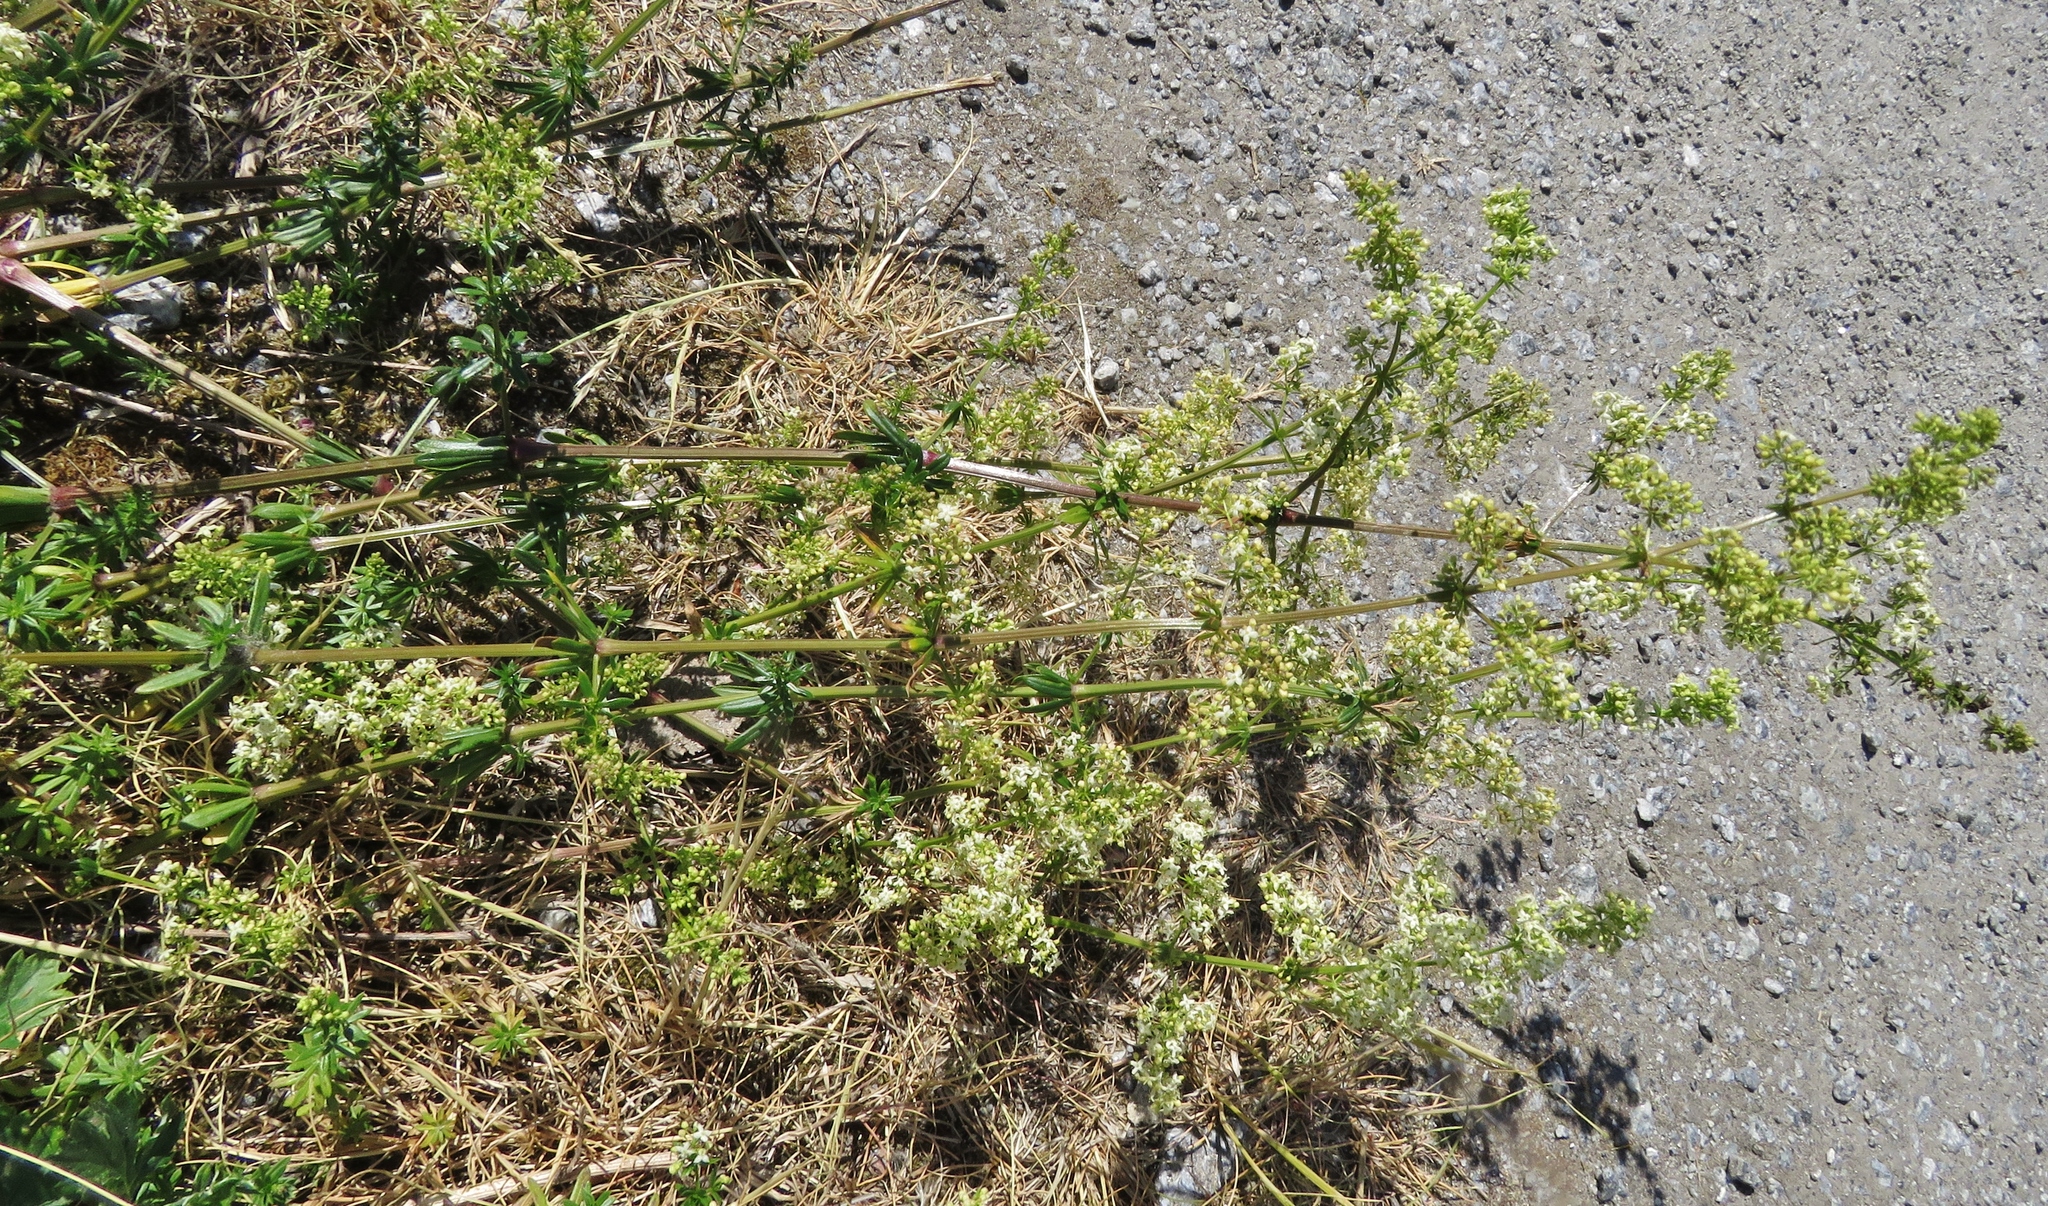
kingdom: Plantae
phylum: Tracheophyta
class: Magnoliopsida
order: Gentianales
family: Rubiaceae
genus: Galium
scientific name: Galium album
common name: White bedstraw
